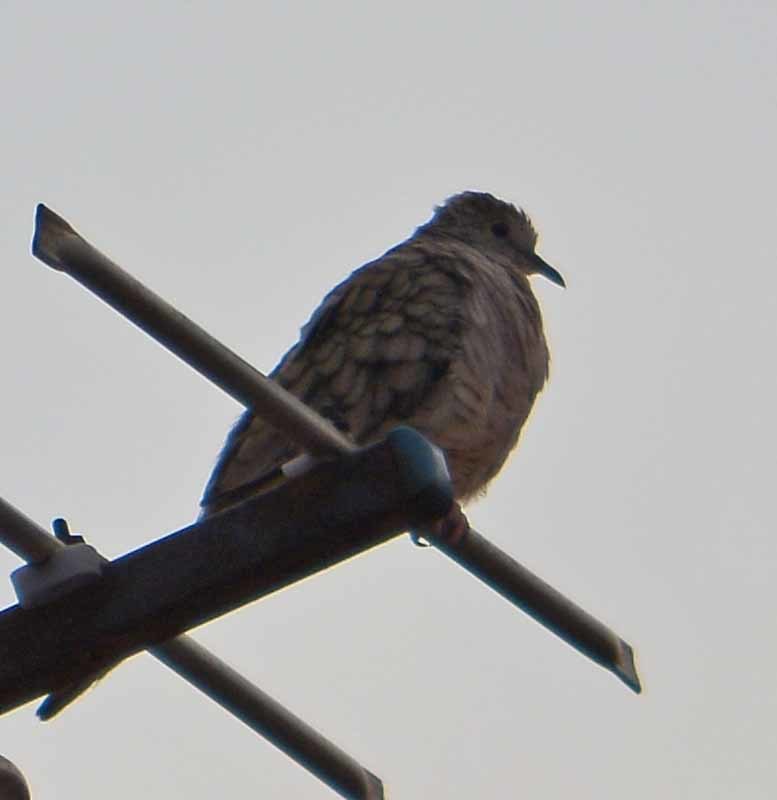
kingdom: Animalia
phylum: Chordata
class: Aves
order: Columbiformes
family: Columbidae
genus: Columbina
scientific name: Columbina inca
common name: Inca dove
